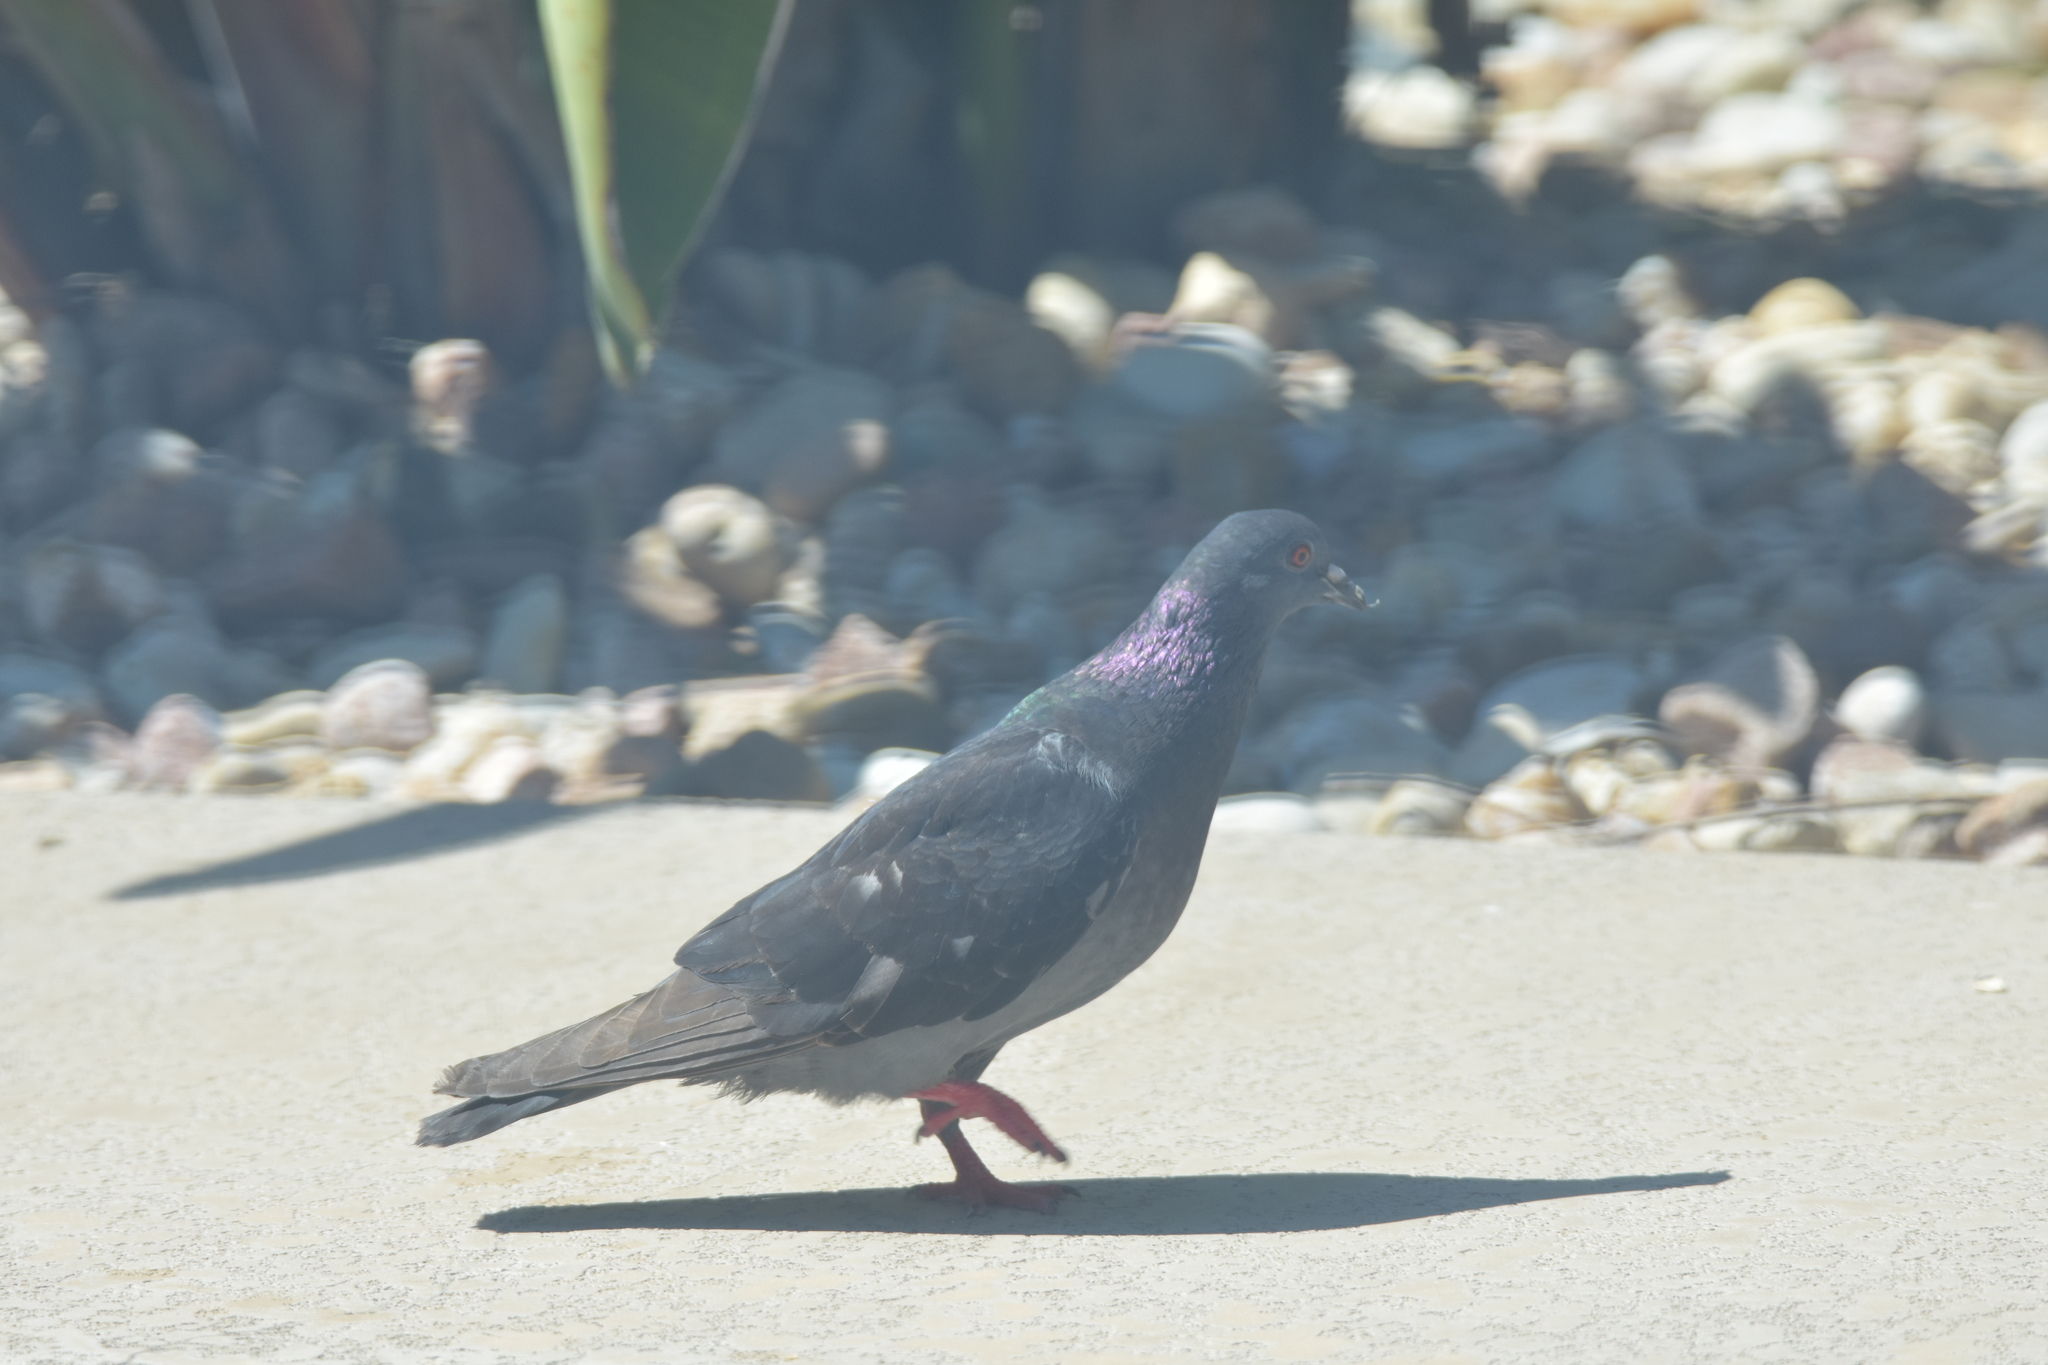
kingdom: Animalia
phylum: Chordata
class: Aves
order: Columbiformes
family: Columbidae
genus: Columba
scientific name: Columba livia
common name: Rock pigeon
